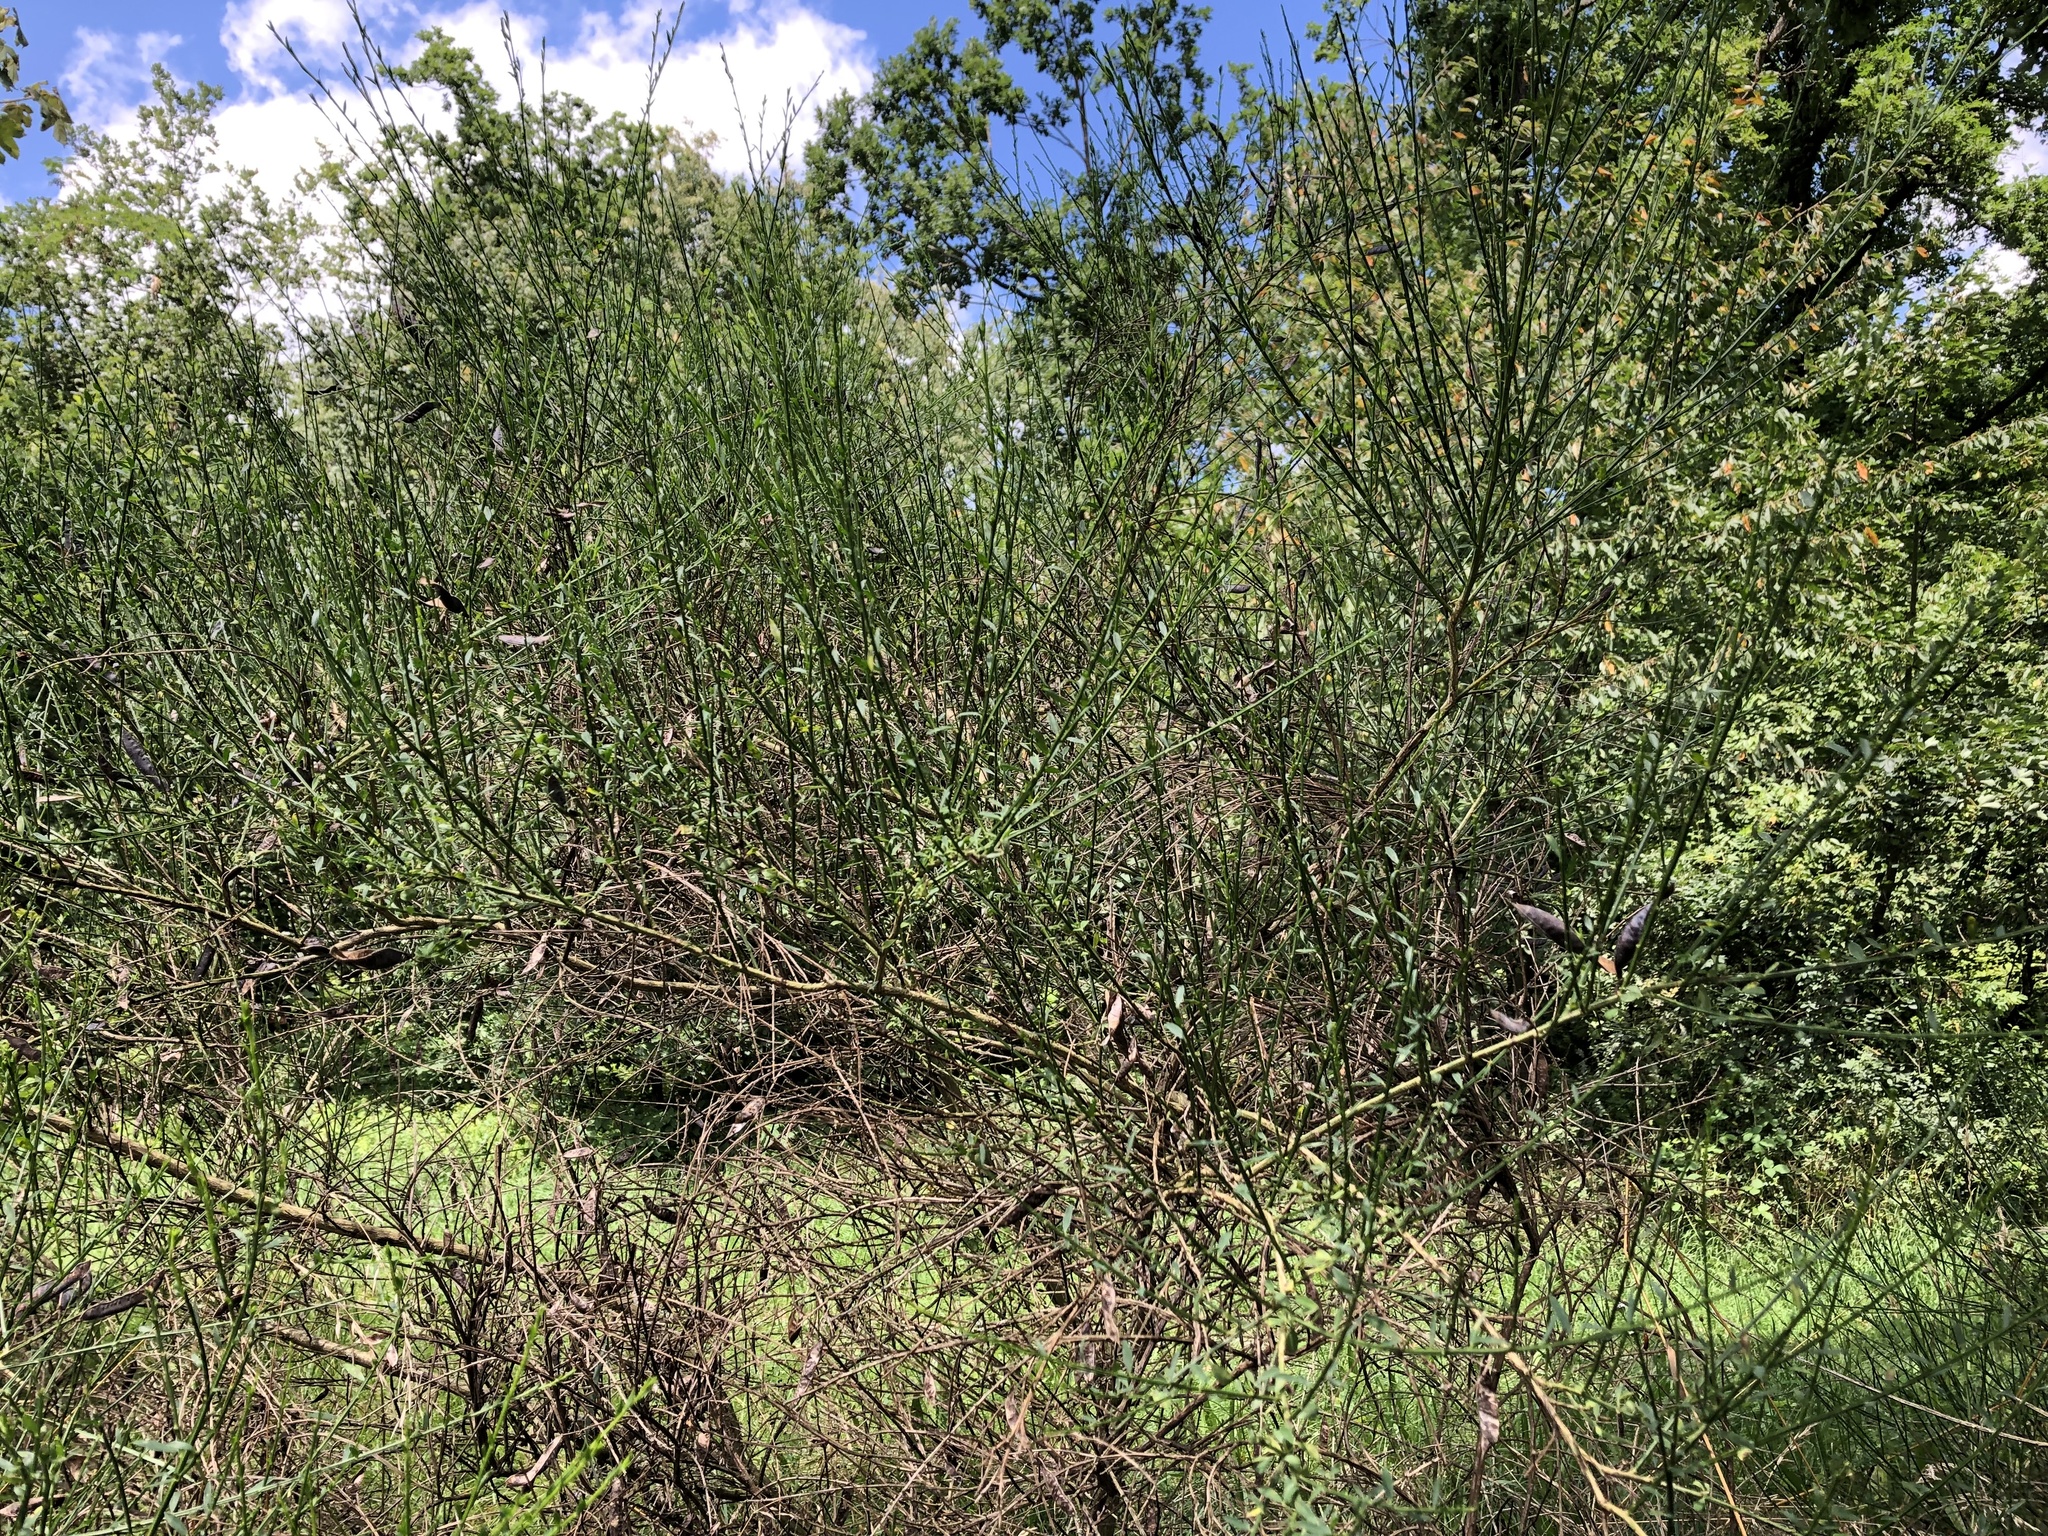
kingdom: Plantae
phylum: Tracheophyta
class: Magnoliopsida
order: Fabales
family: Fabaceae
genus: Cytisus
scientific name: Cytisus scoparius
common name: Scotch broom
